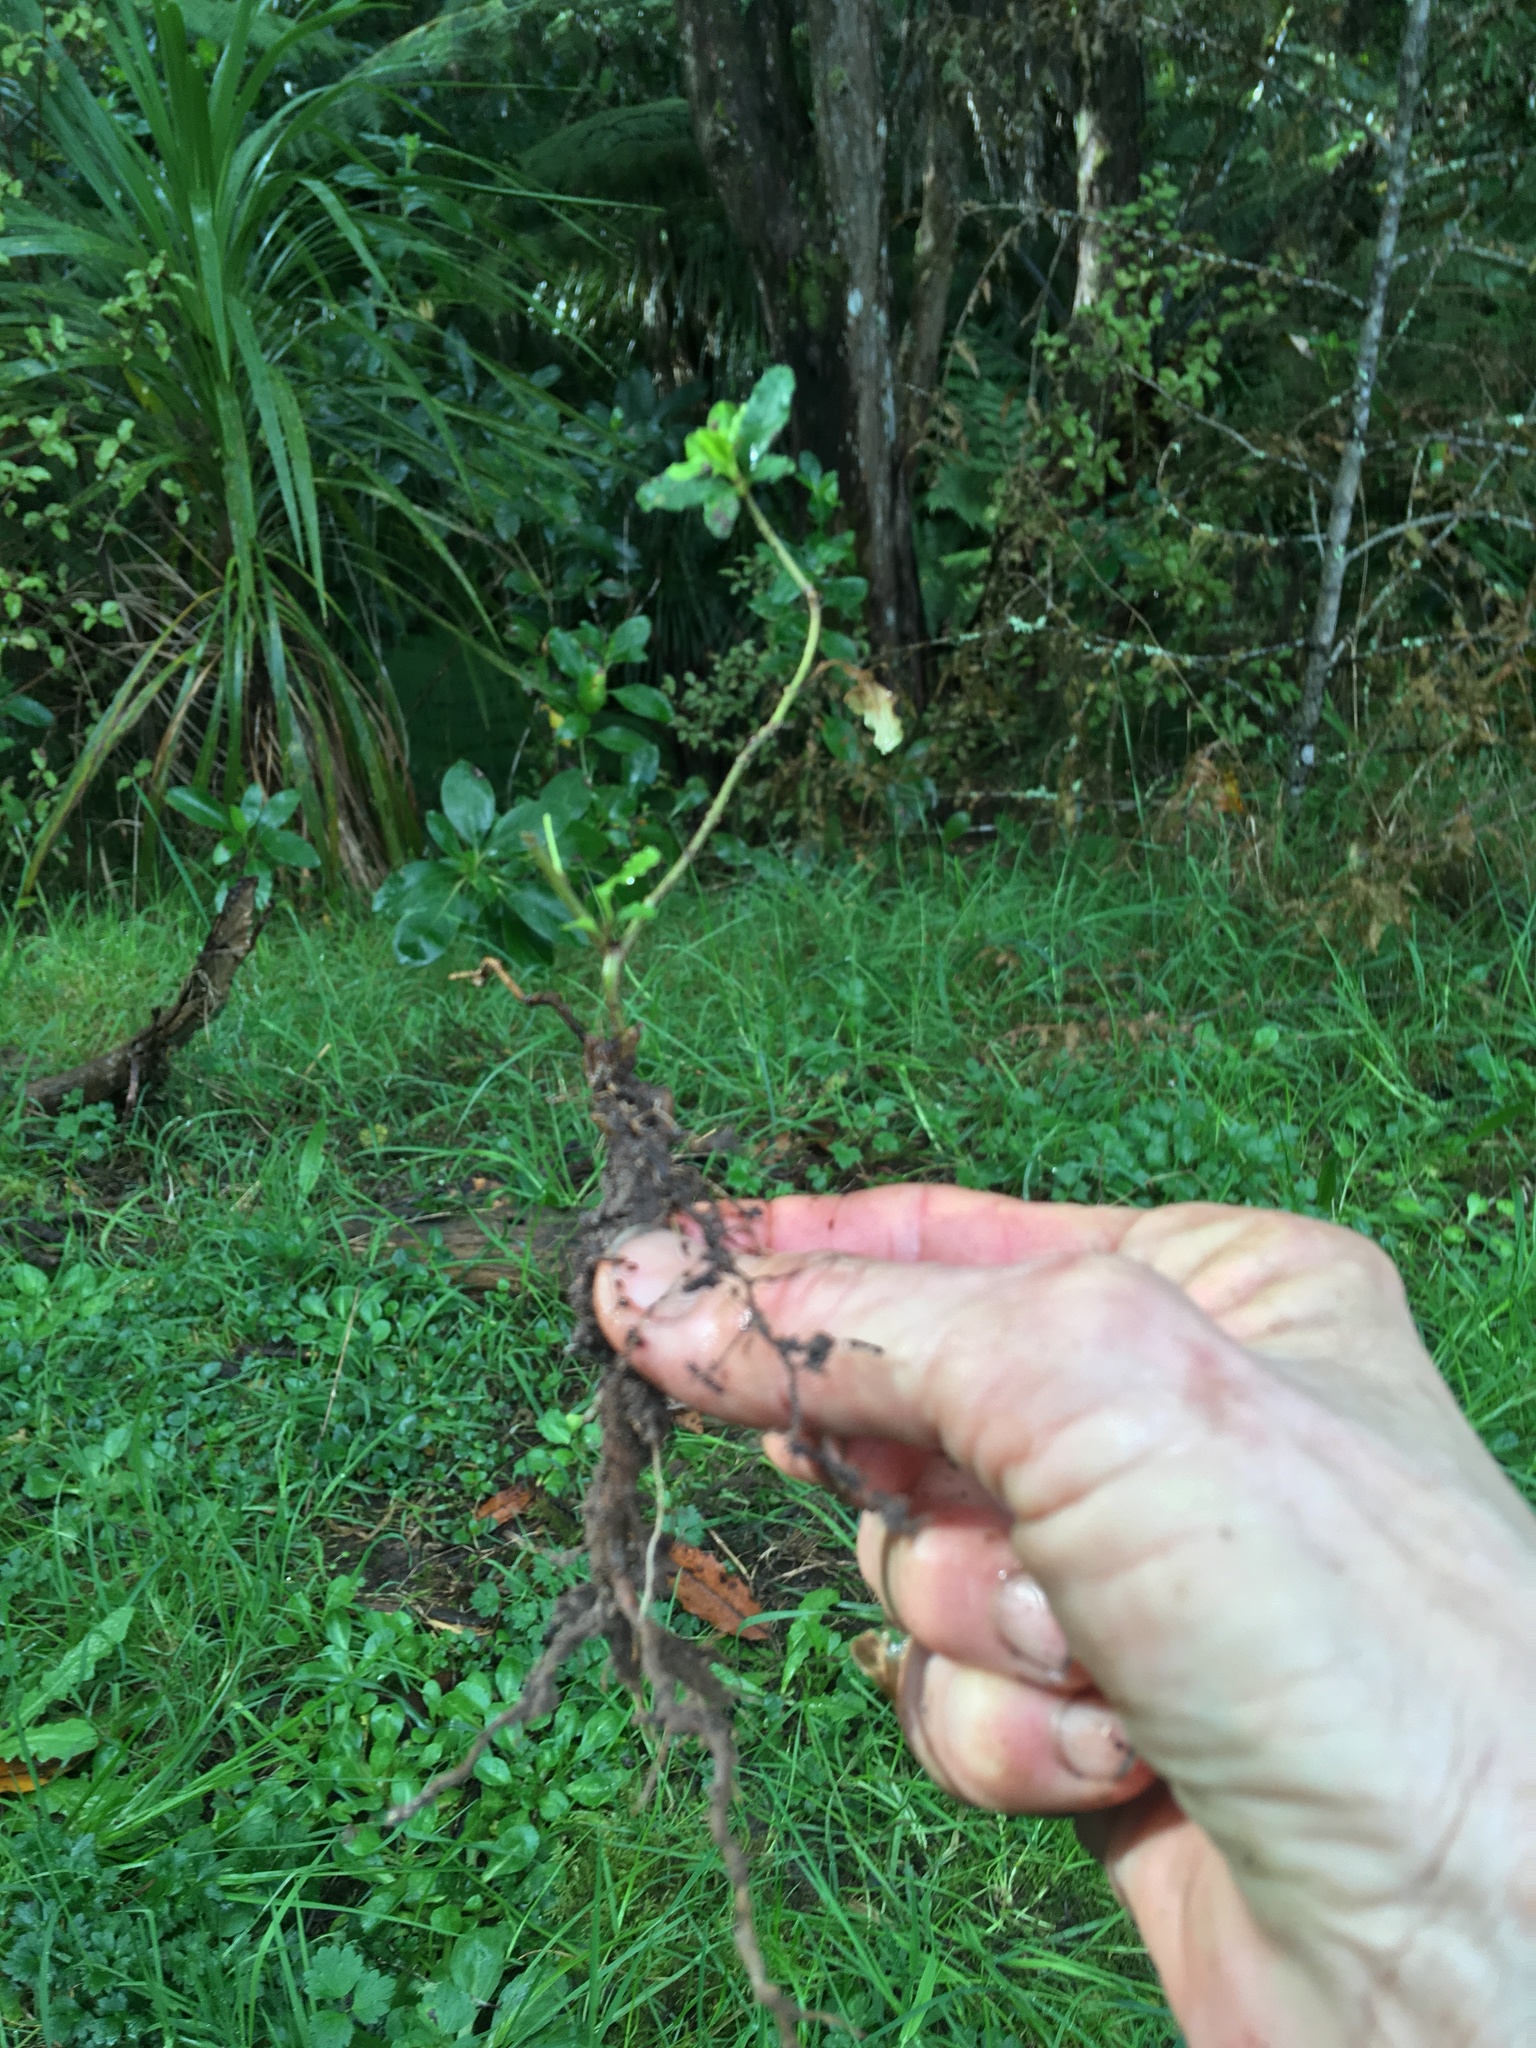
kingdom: Plantae
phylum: Tracheophyta
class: Magnoliopsida
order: Lamiales
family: Oleaceae
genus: Ligustrum
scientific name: Ligustrum sinense
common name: Chinese privet
